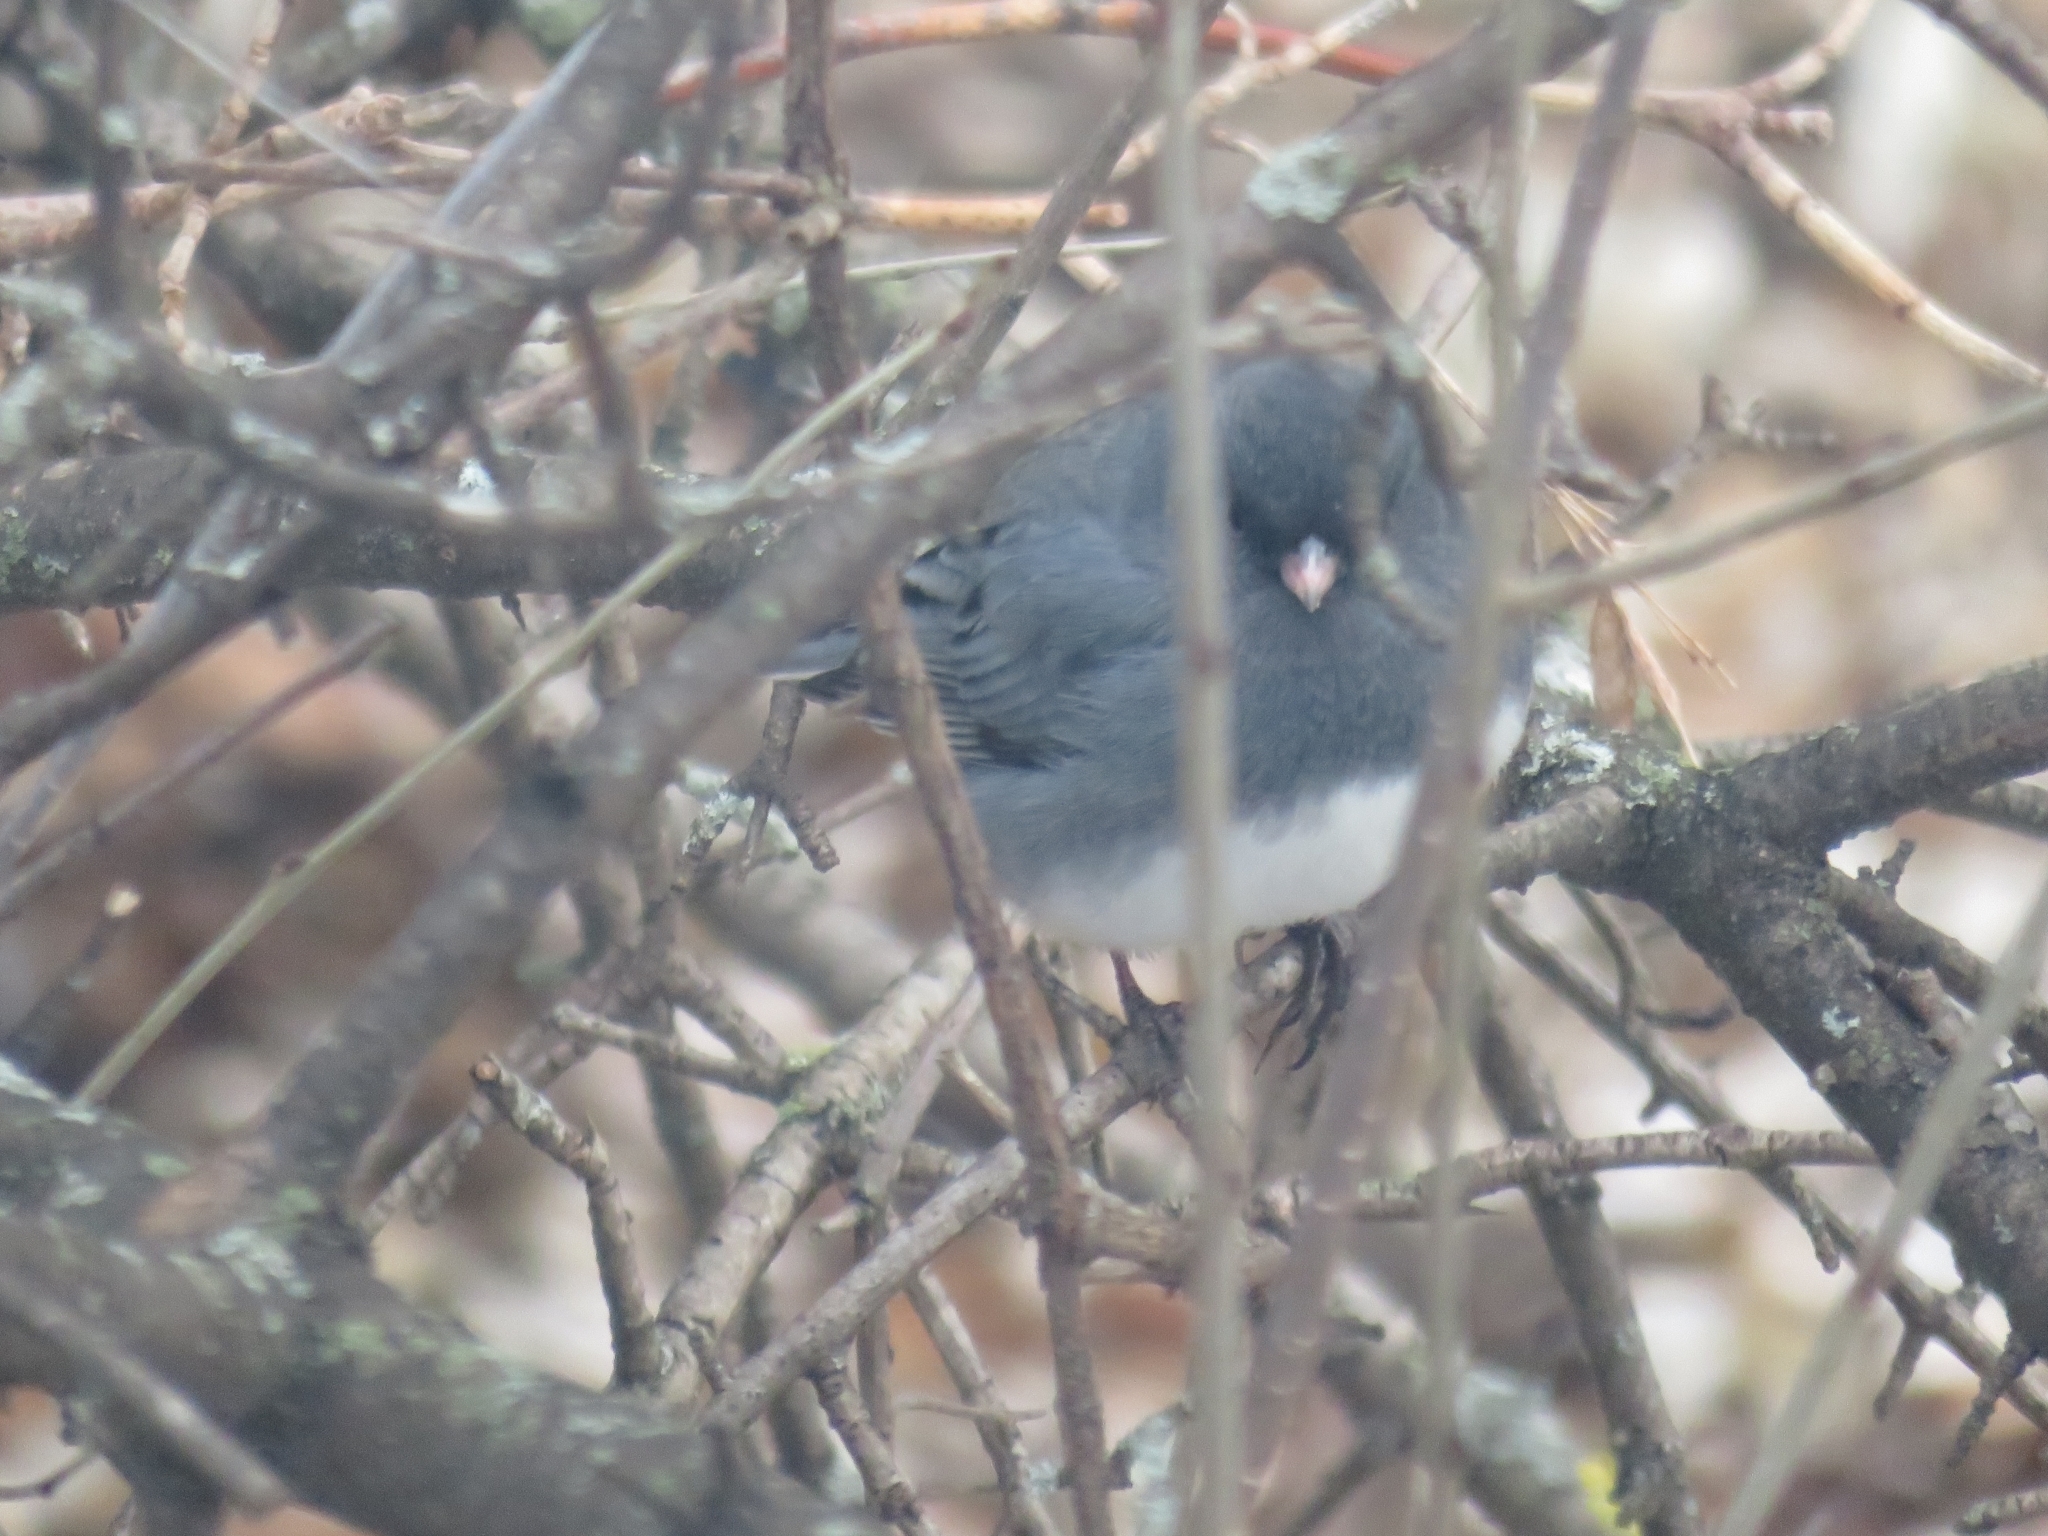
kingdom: Animalia
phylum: Chordata
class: Aves
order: Passeriformes
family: Passerellidae
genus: Junco
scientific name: Junco hyemalis
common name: Dark-eyed junco
